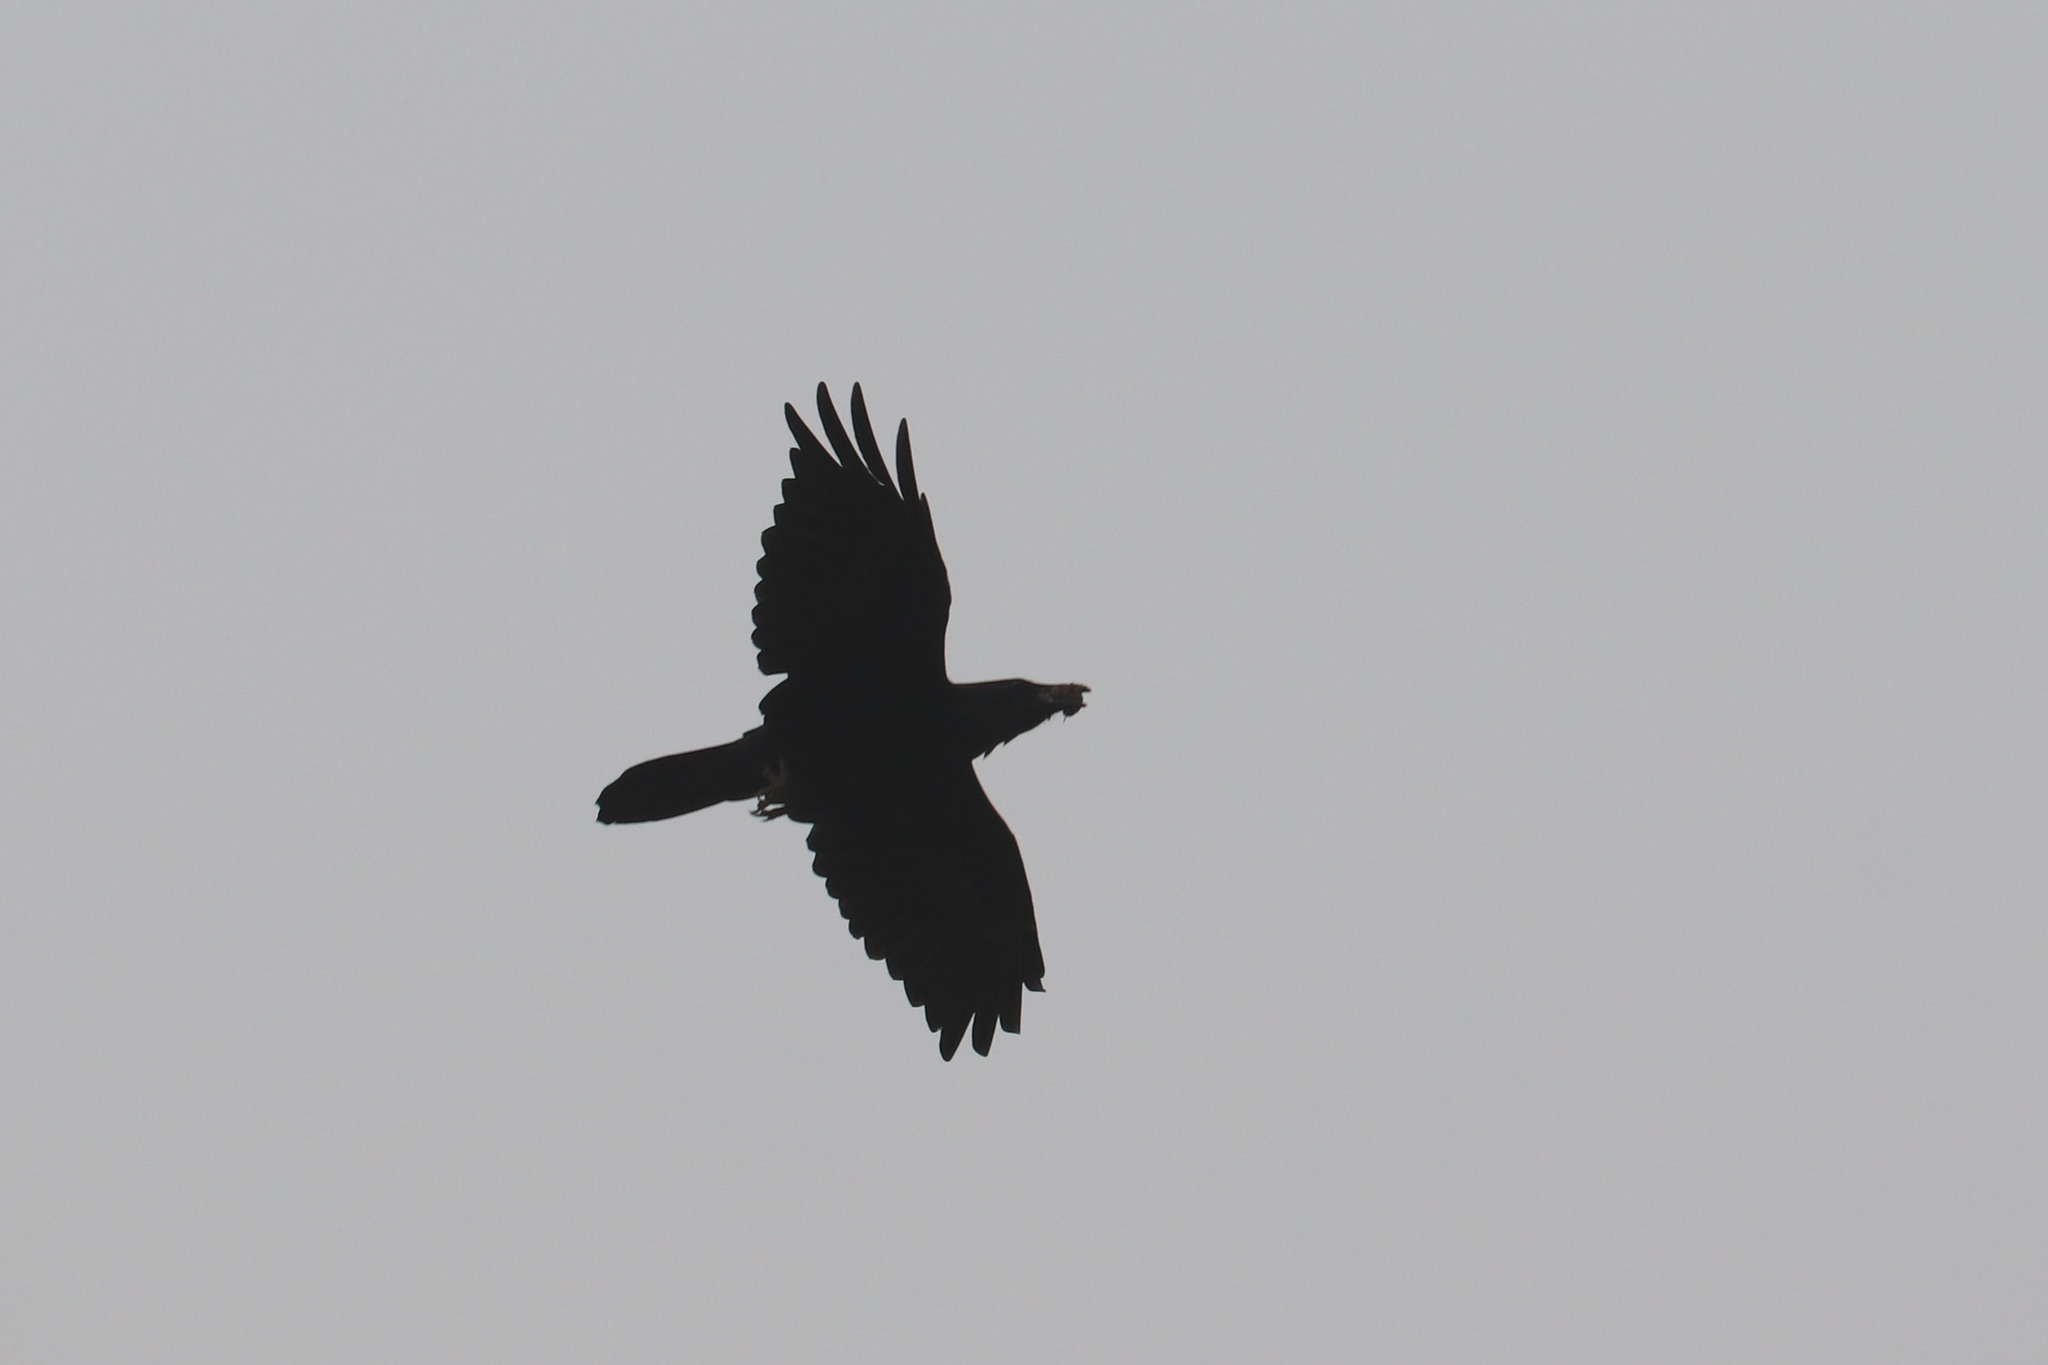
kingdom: Animalia
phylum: Chordata
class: Aves
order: Passeriformes
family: Corvidae
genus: Corvus
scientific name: Corvus corax
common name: Common raven
